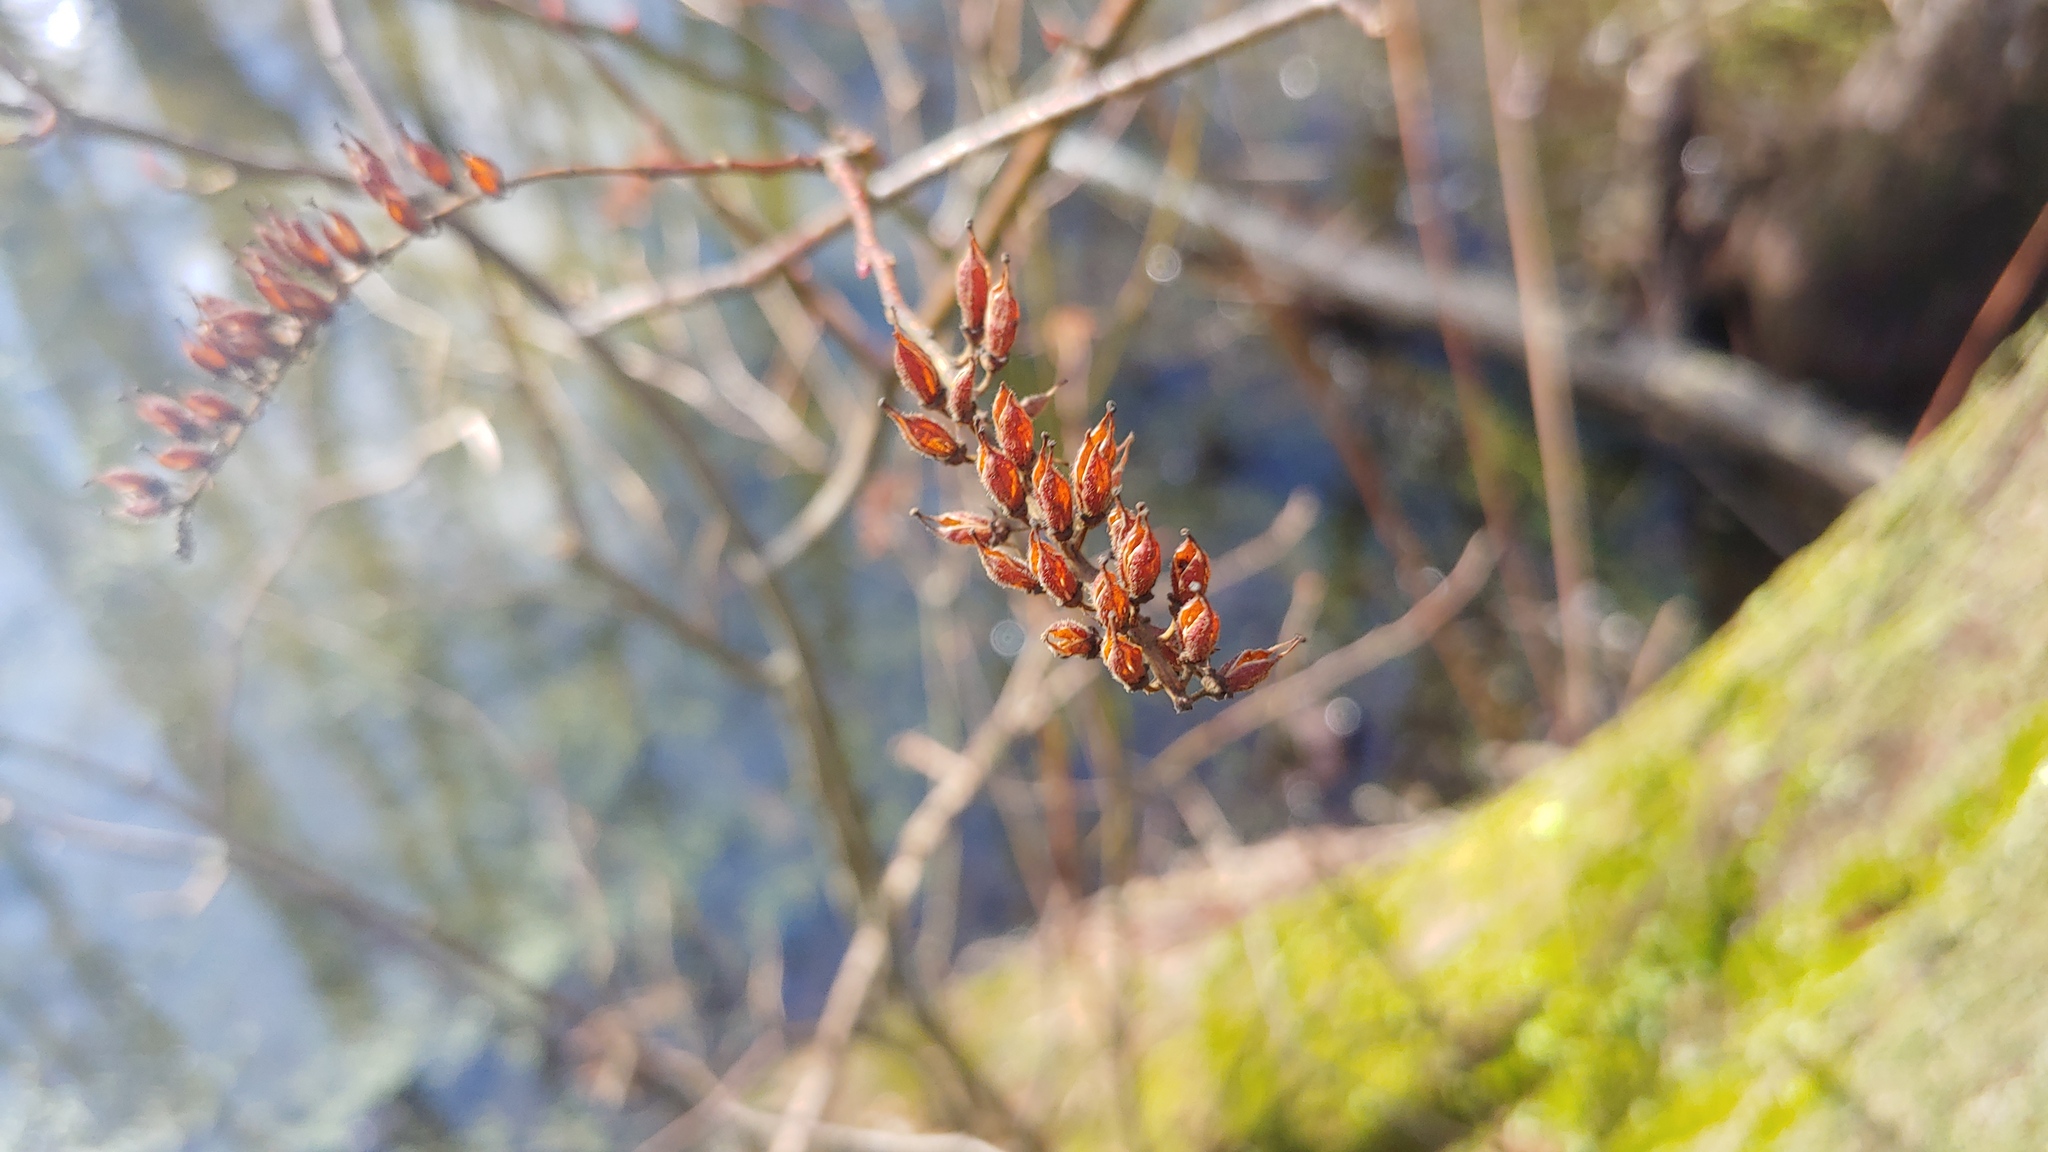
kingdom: Plantae
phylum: Tracheophyta
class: Magnoliopsida
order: Saxifragales
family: Iteaceae
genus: Itea
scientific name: Itea virginica
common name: Sweetspire
